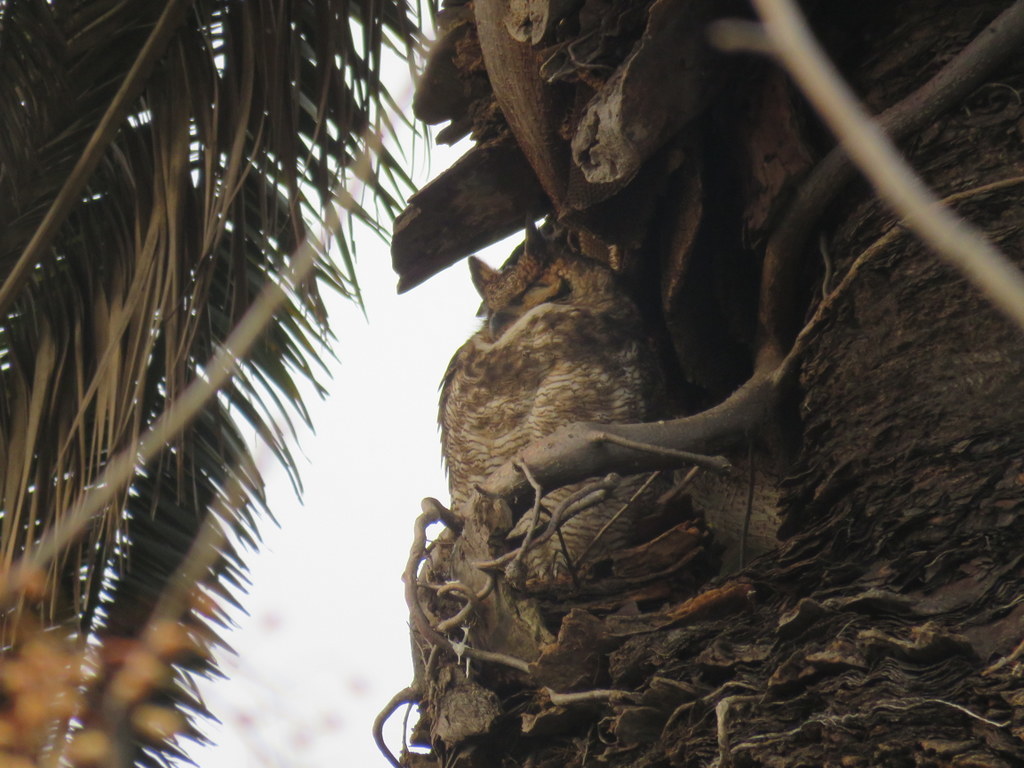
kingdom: Animalia
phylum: Chordata
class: Aves
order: Strigiformes
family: Strigidae
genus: Bubo
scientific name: Bubo virginianus
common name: Great horned owl
